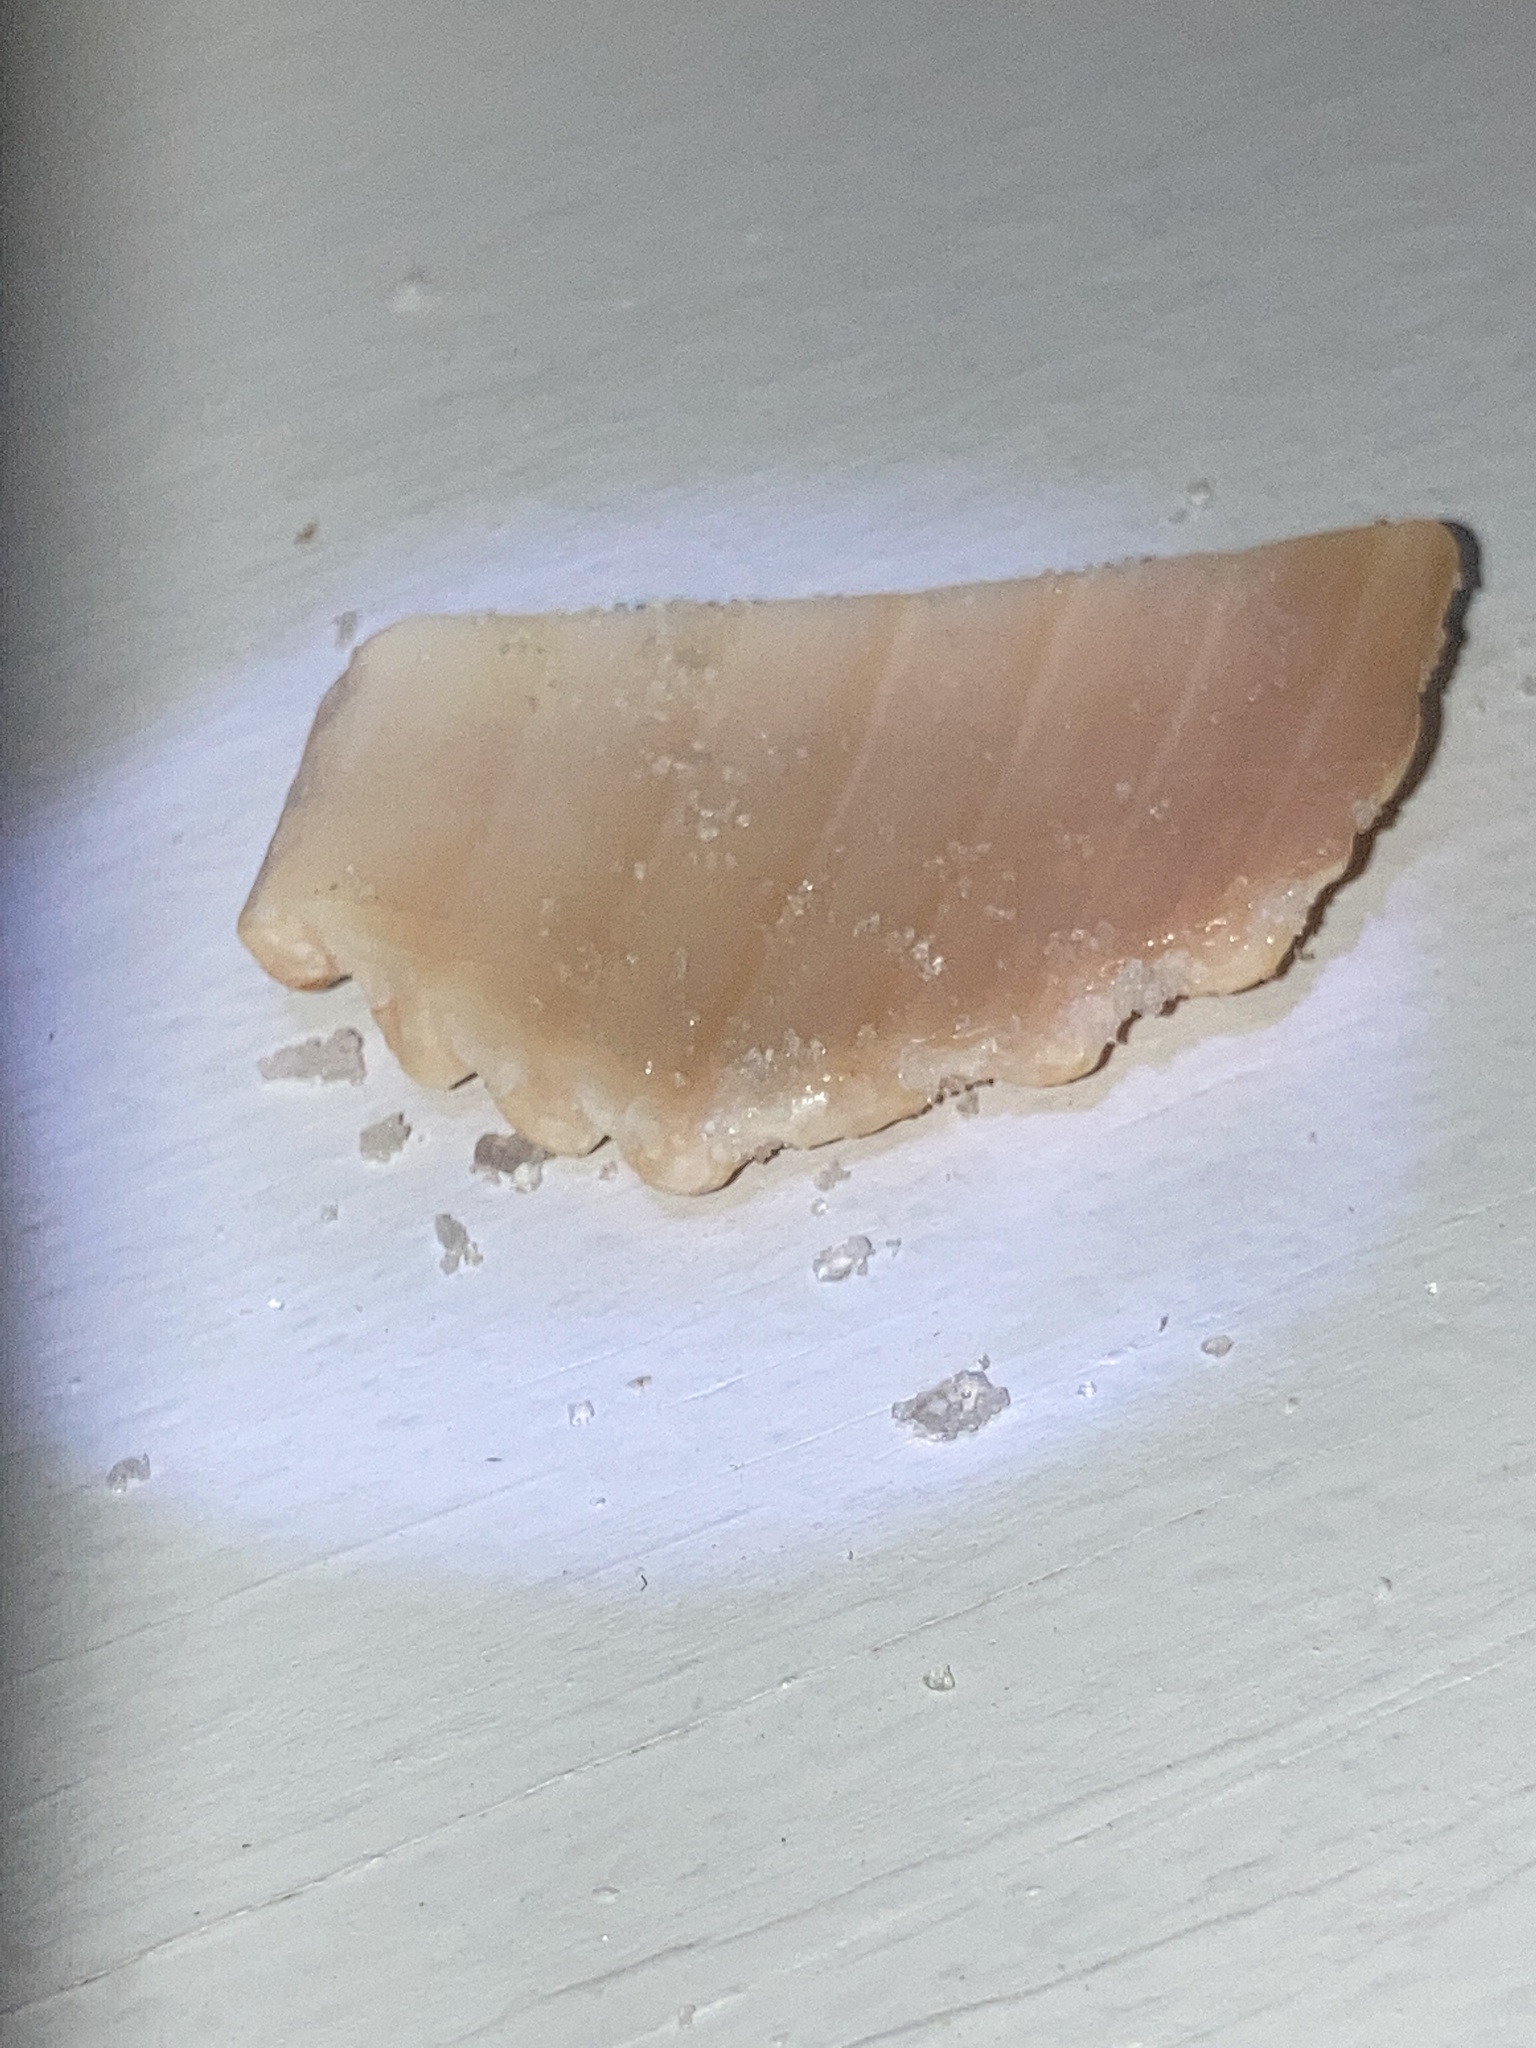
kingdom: Animalia
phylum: Mollusca
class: Bivalvia
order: Cardiida
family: Cardiidae
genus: Dinocardium
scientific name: Dinocardium robustum
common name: Atlantic giant cockle
